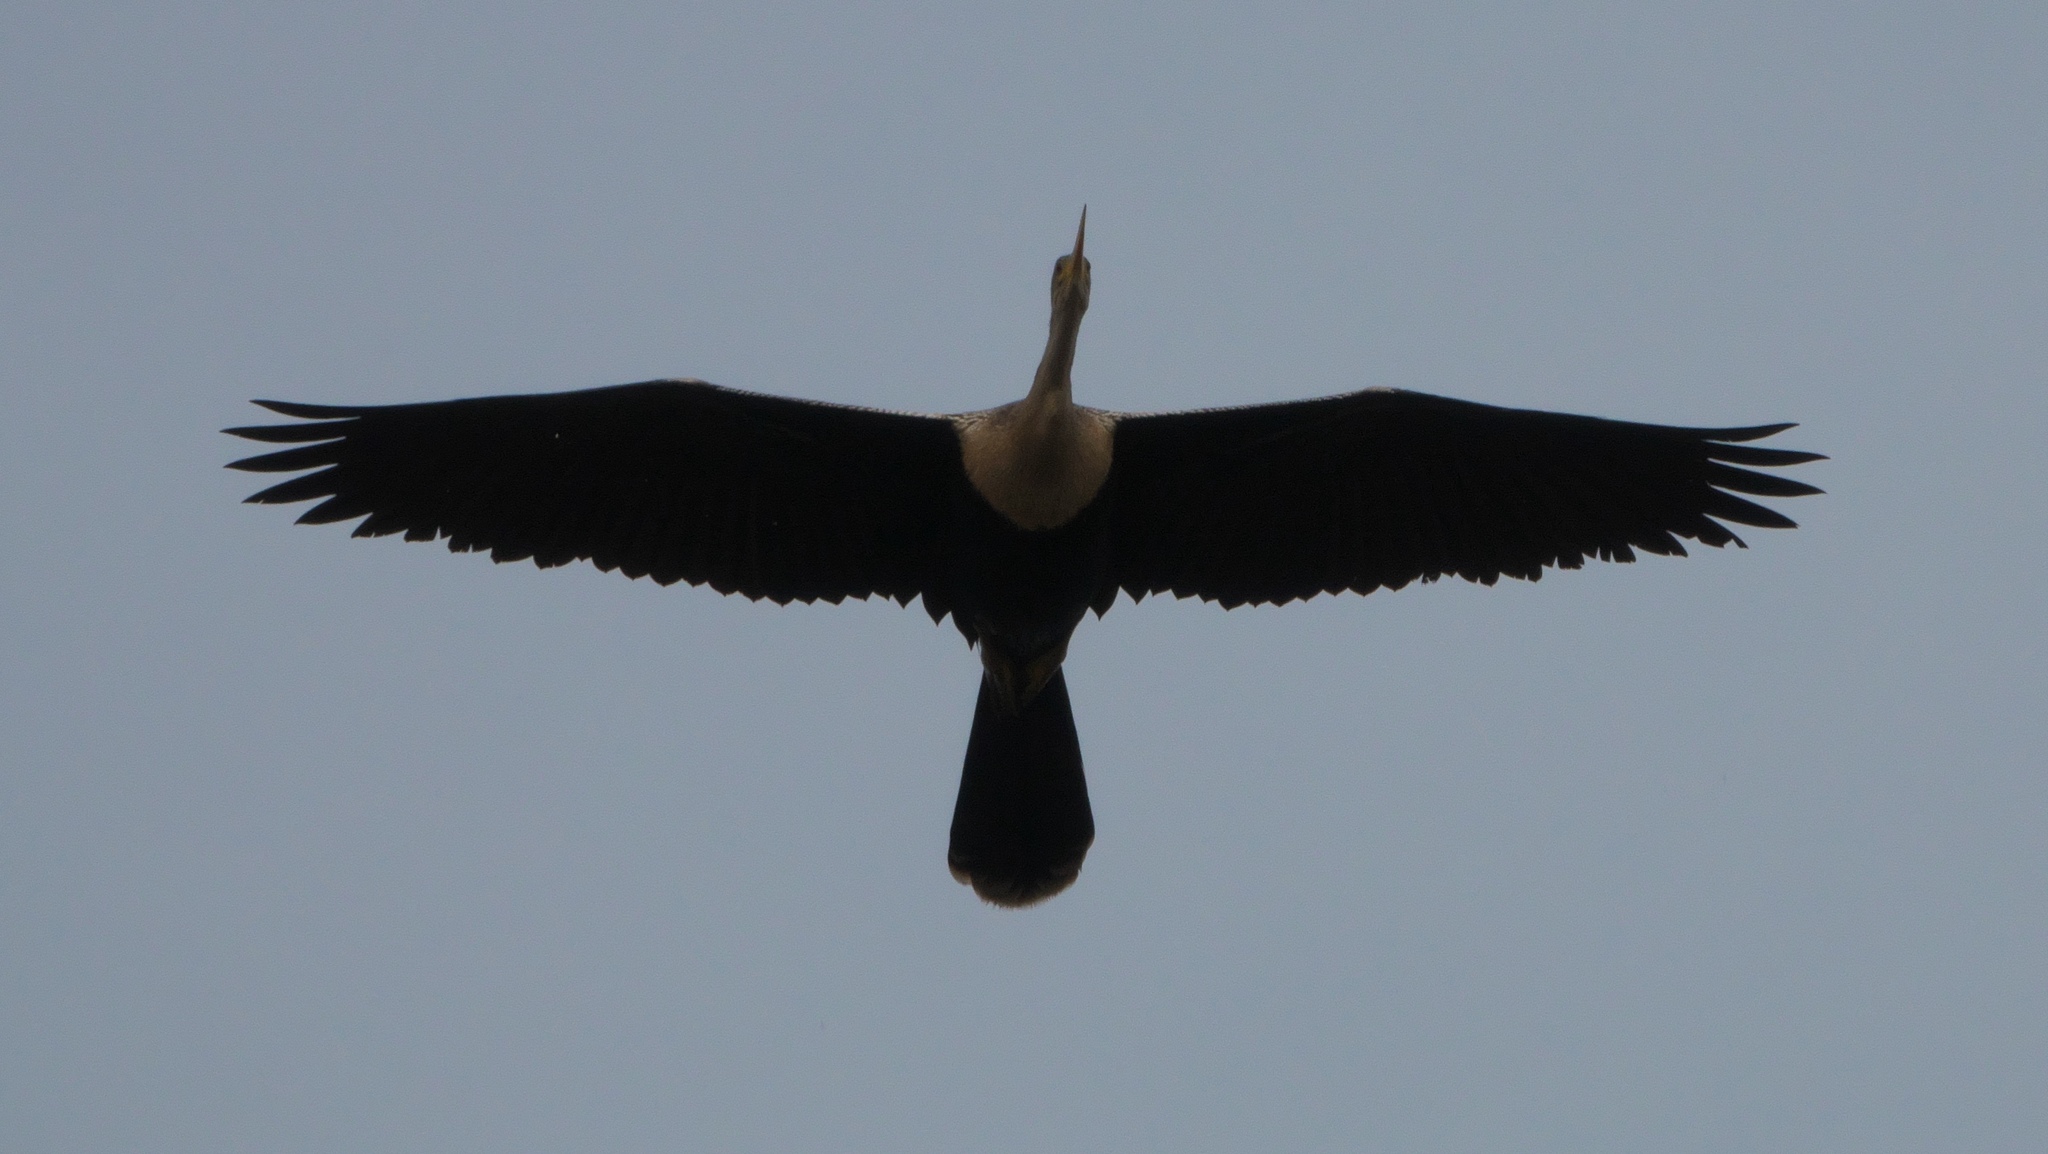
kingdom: Animalia
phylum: Chordata
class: Aves
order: Suliformes
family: Anhingidae
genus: Anhinga
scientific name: Anhinga anhinga
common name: Anhinga
